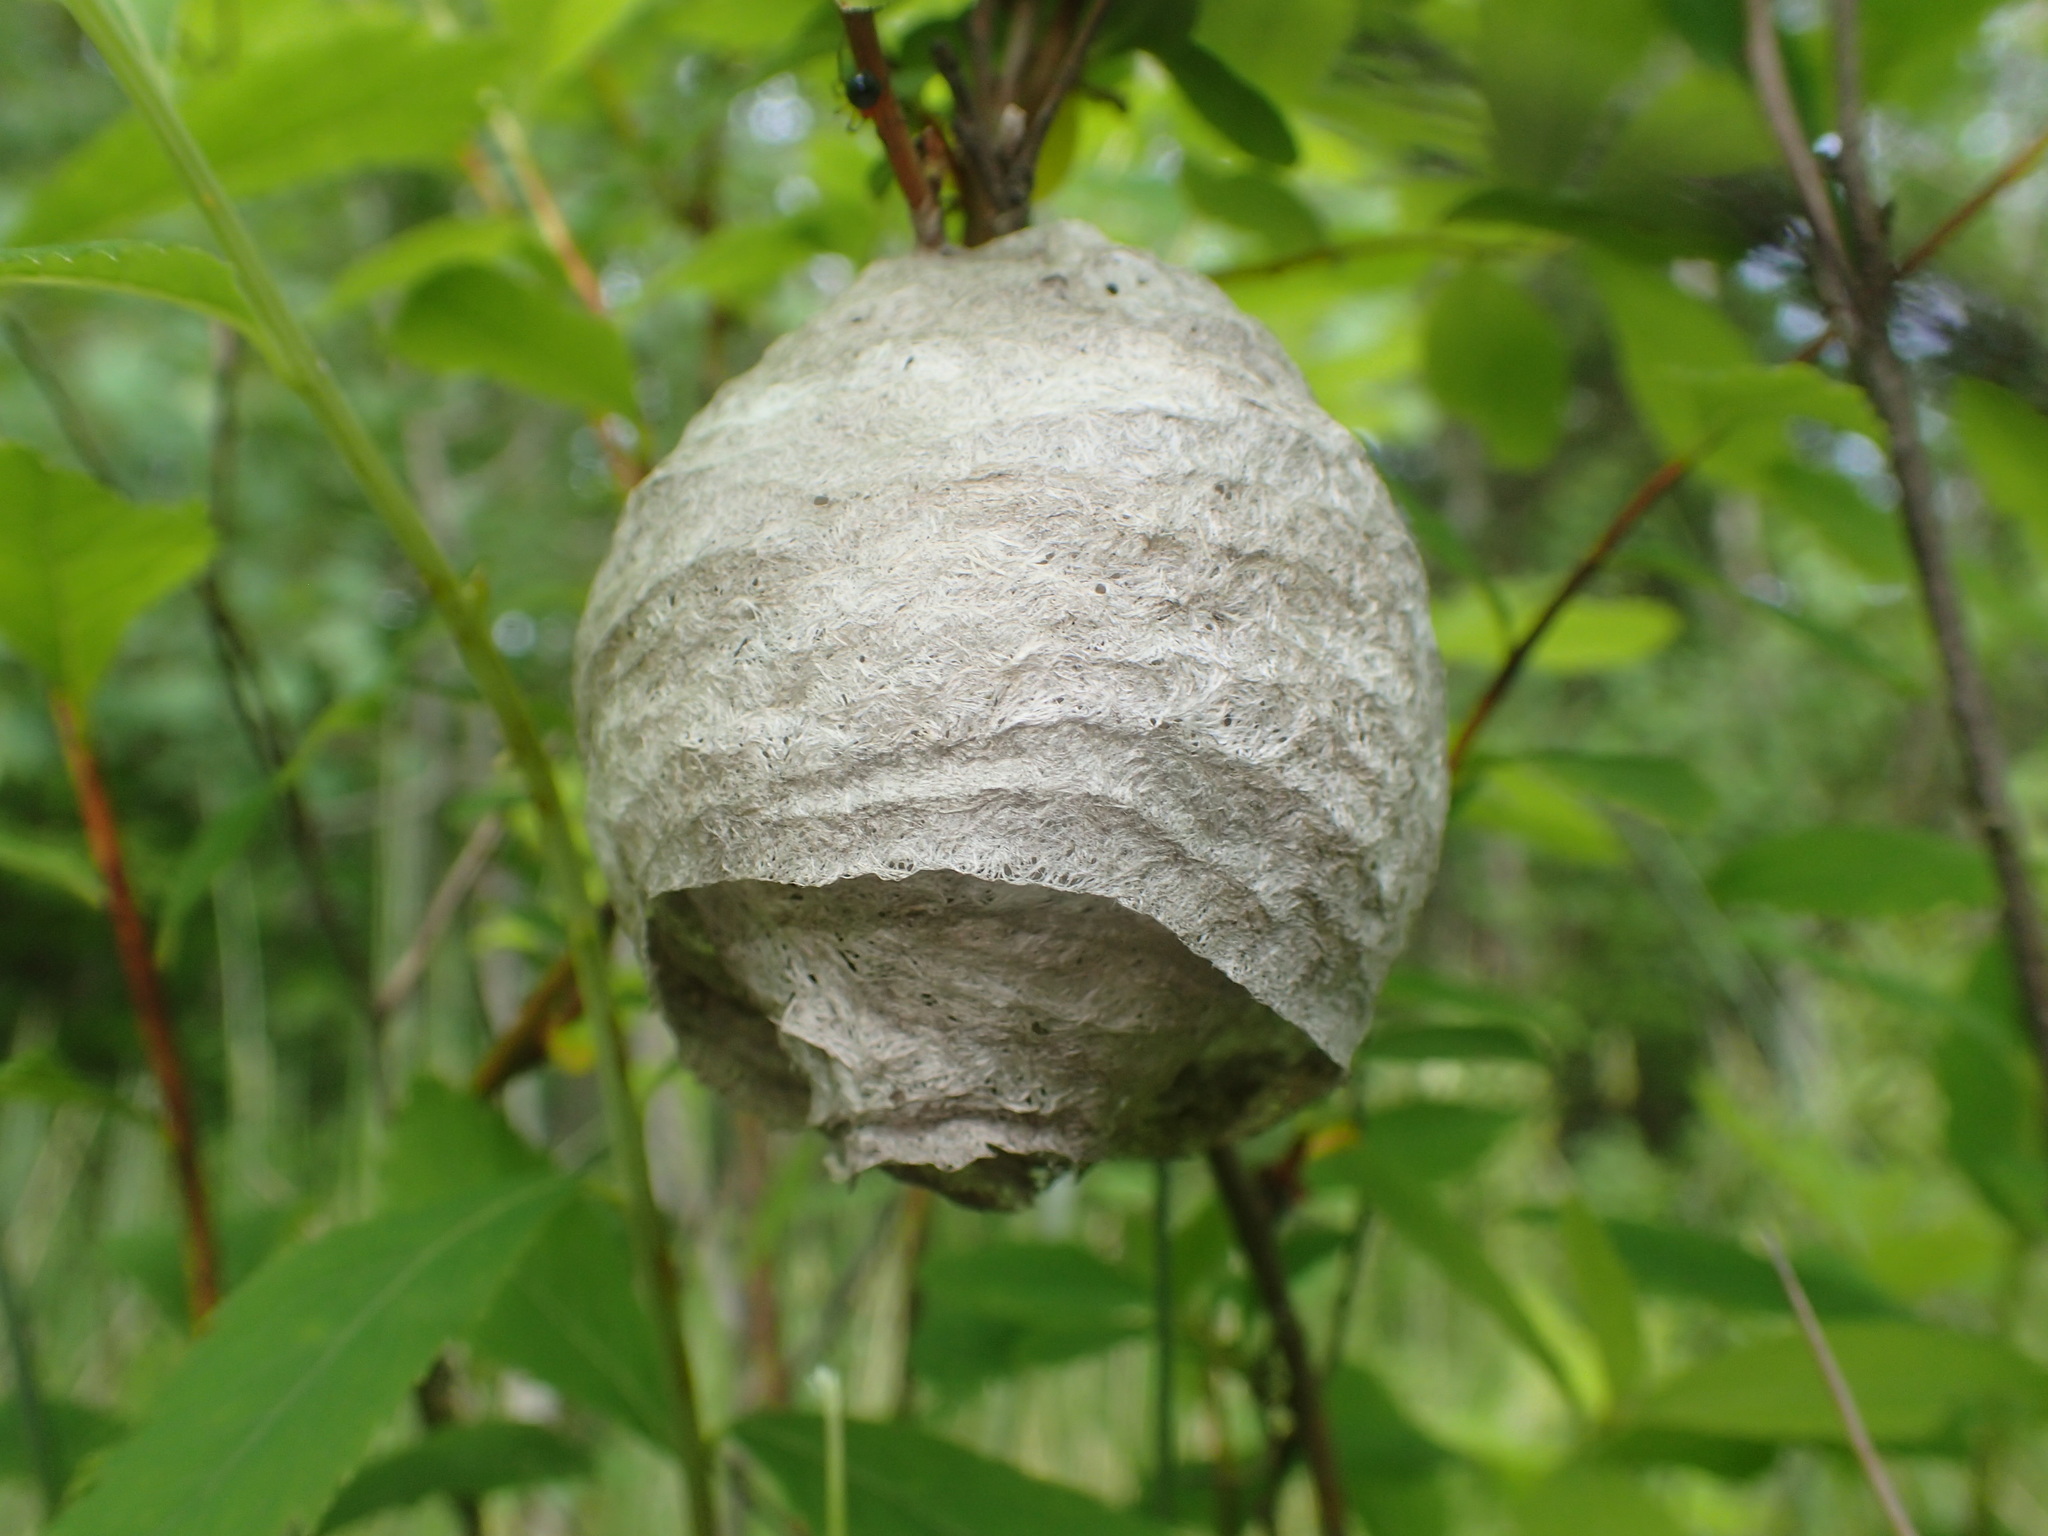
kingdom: Animalia
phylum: Arthropoda
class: Insecta
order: Hymenoptera
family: Vespidae
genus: Dolichovespula
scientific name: Dolichovespula
